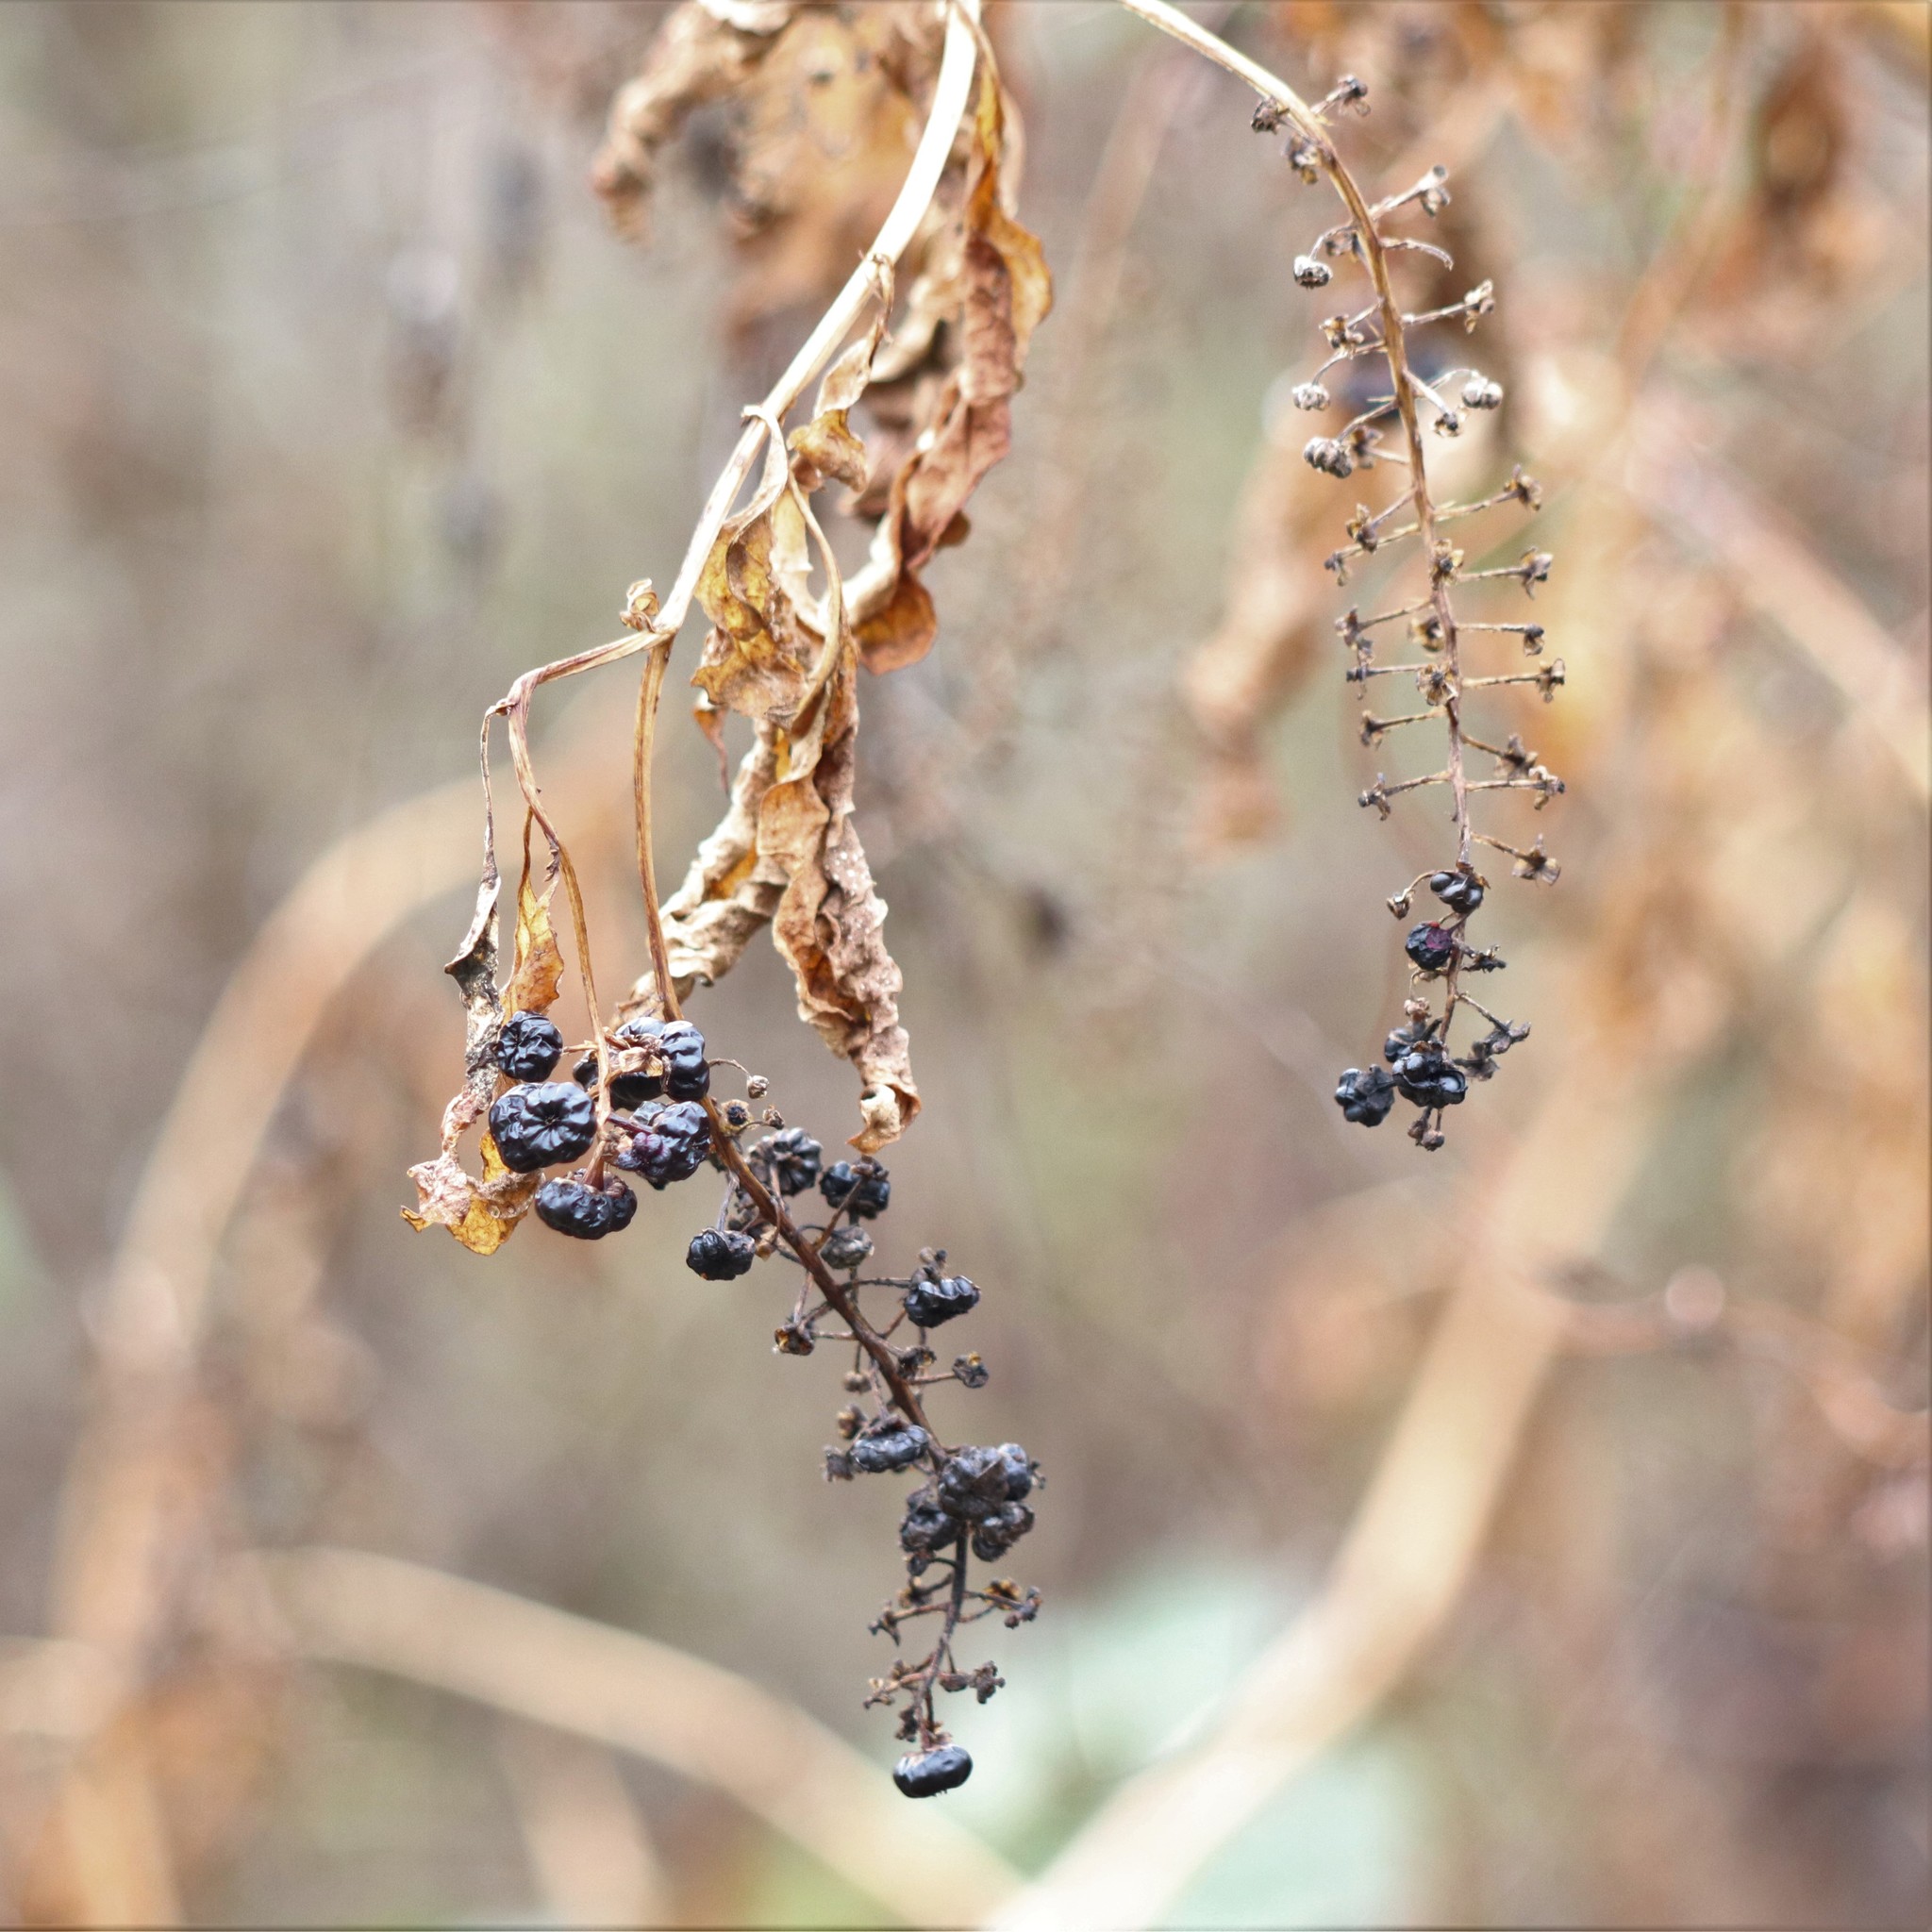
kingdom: Plantae
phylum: Tracheophyta
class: Magnoliopsida
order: Caryophyllales
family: Phytolaccaceae
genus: Phytolacca
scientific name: Phytolacca americana
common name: American pokeweed
